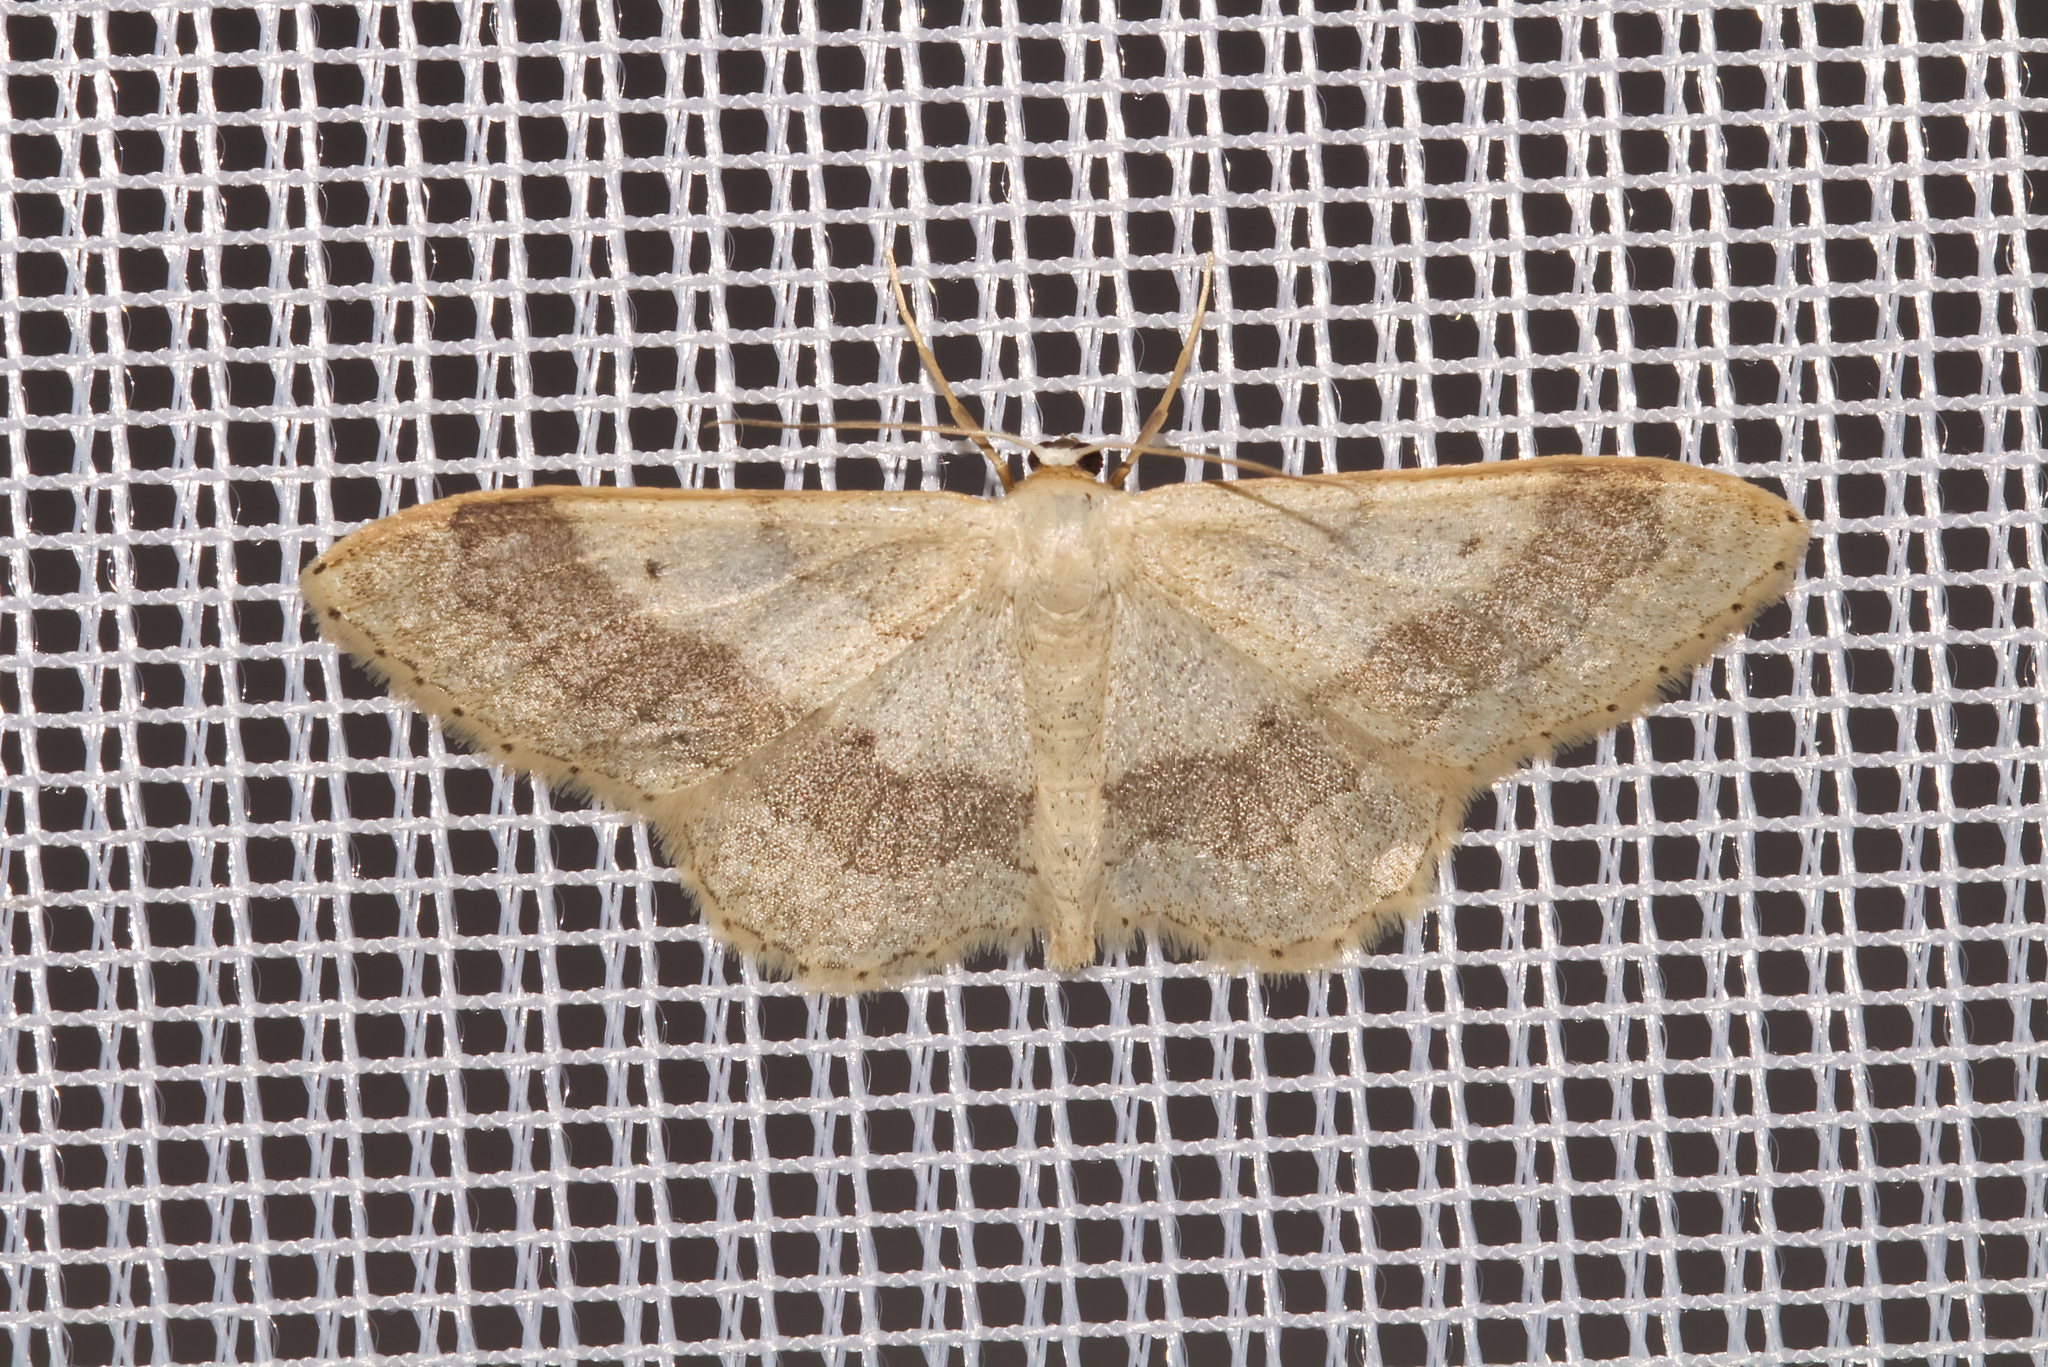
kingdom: Animalia
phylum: Arthropoda
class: Insecta
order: Lepidoptera
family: Geometridae
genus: Idaea
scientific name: Idaea aversata
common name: Riband wave
